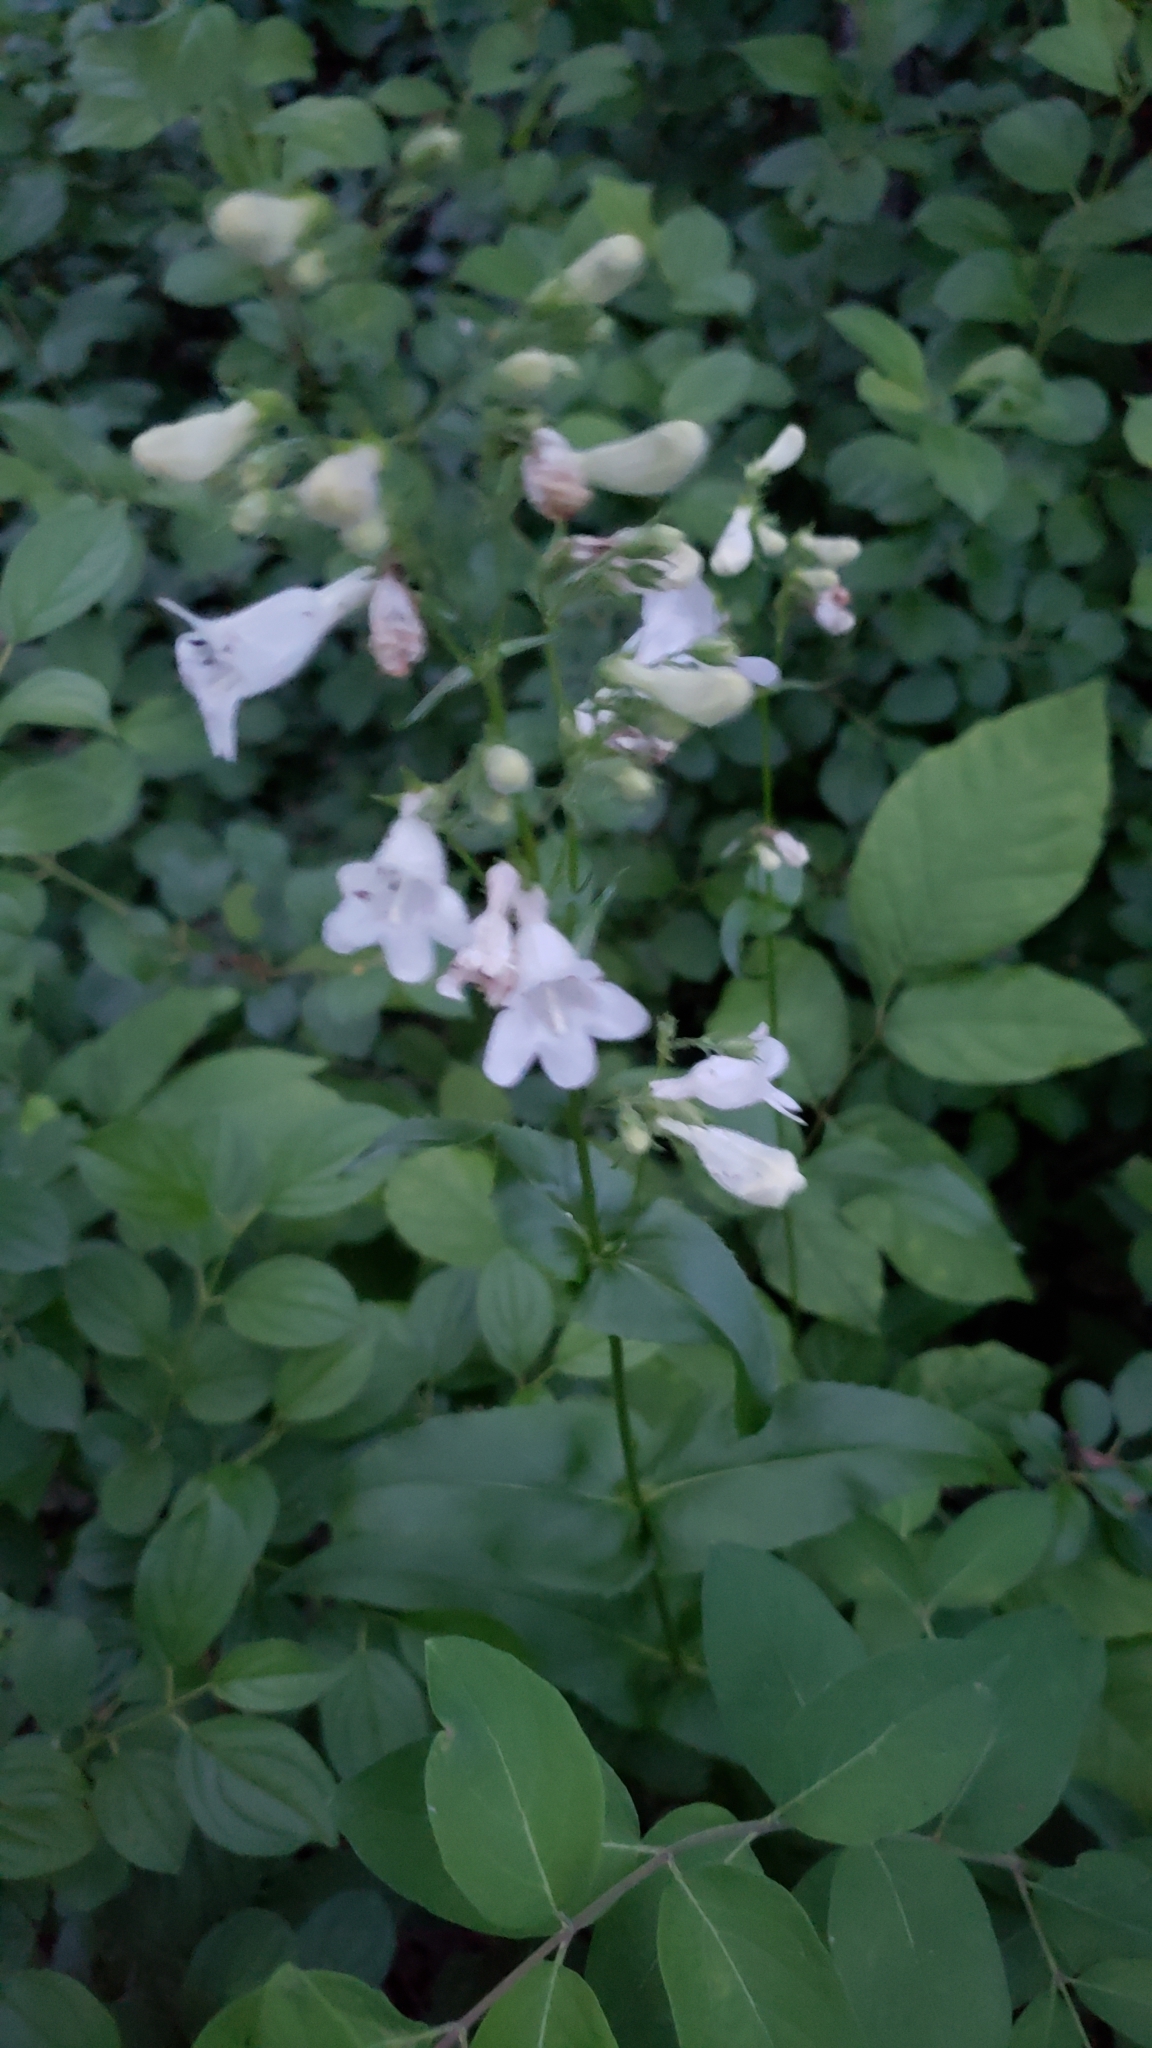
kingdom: Plantae
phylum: Tracheophyta
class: Magnoliopsida
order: Lamiales
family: Plantaginaceae
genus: Penstemon
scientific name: Penstemon digitalis
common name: Foxglove beardtongue
